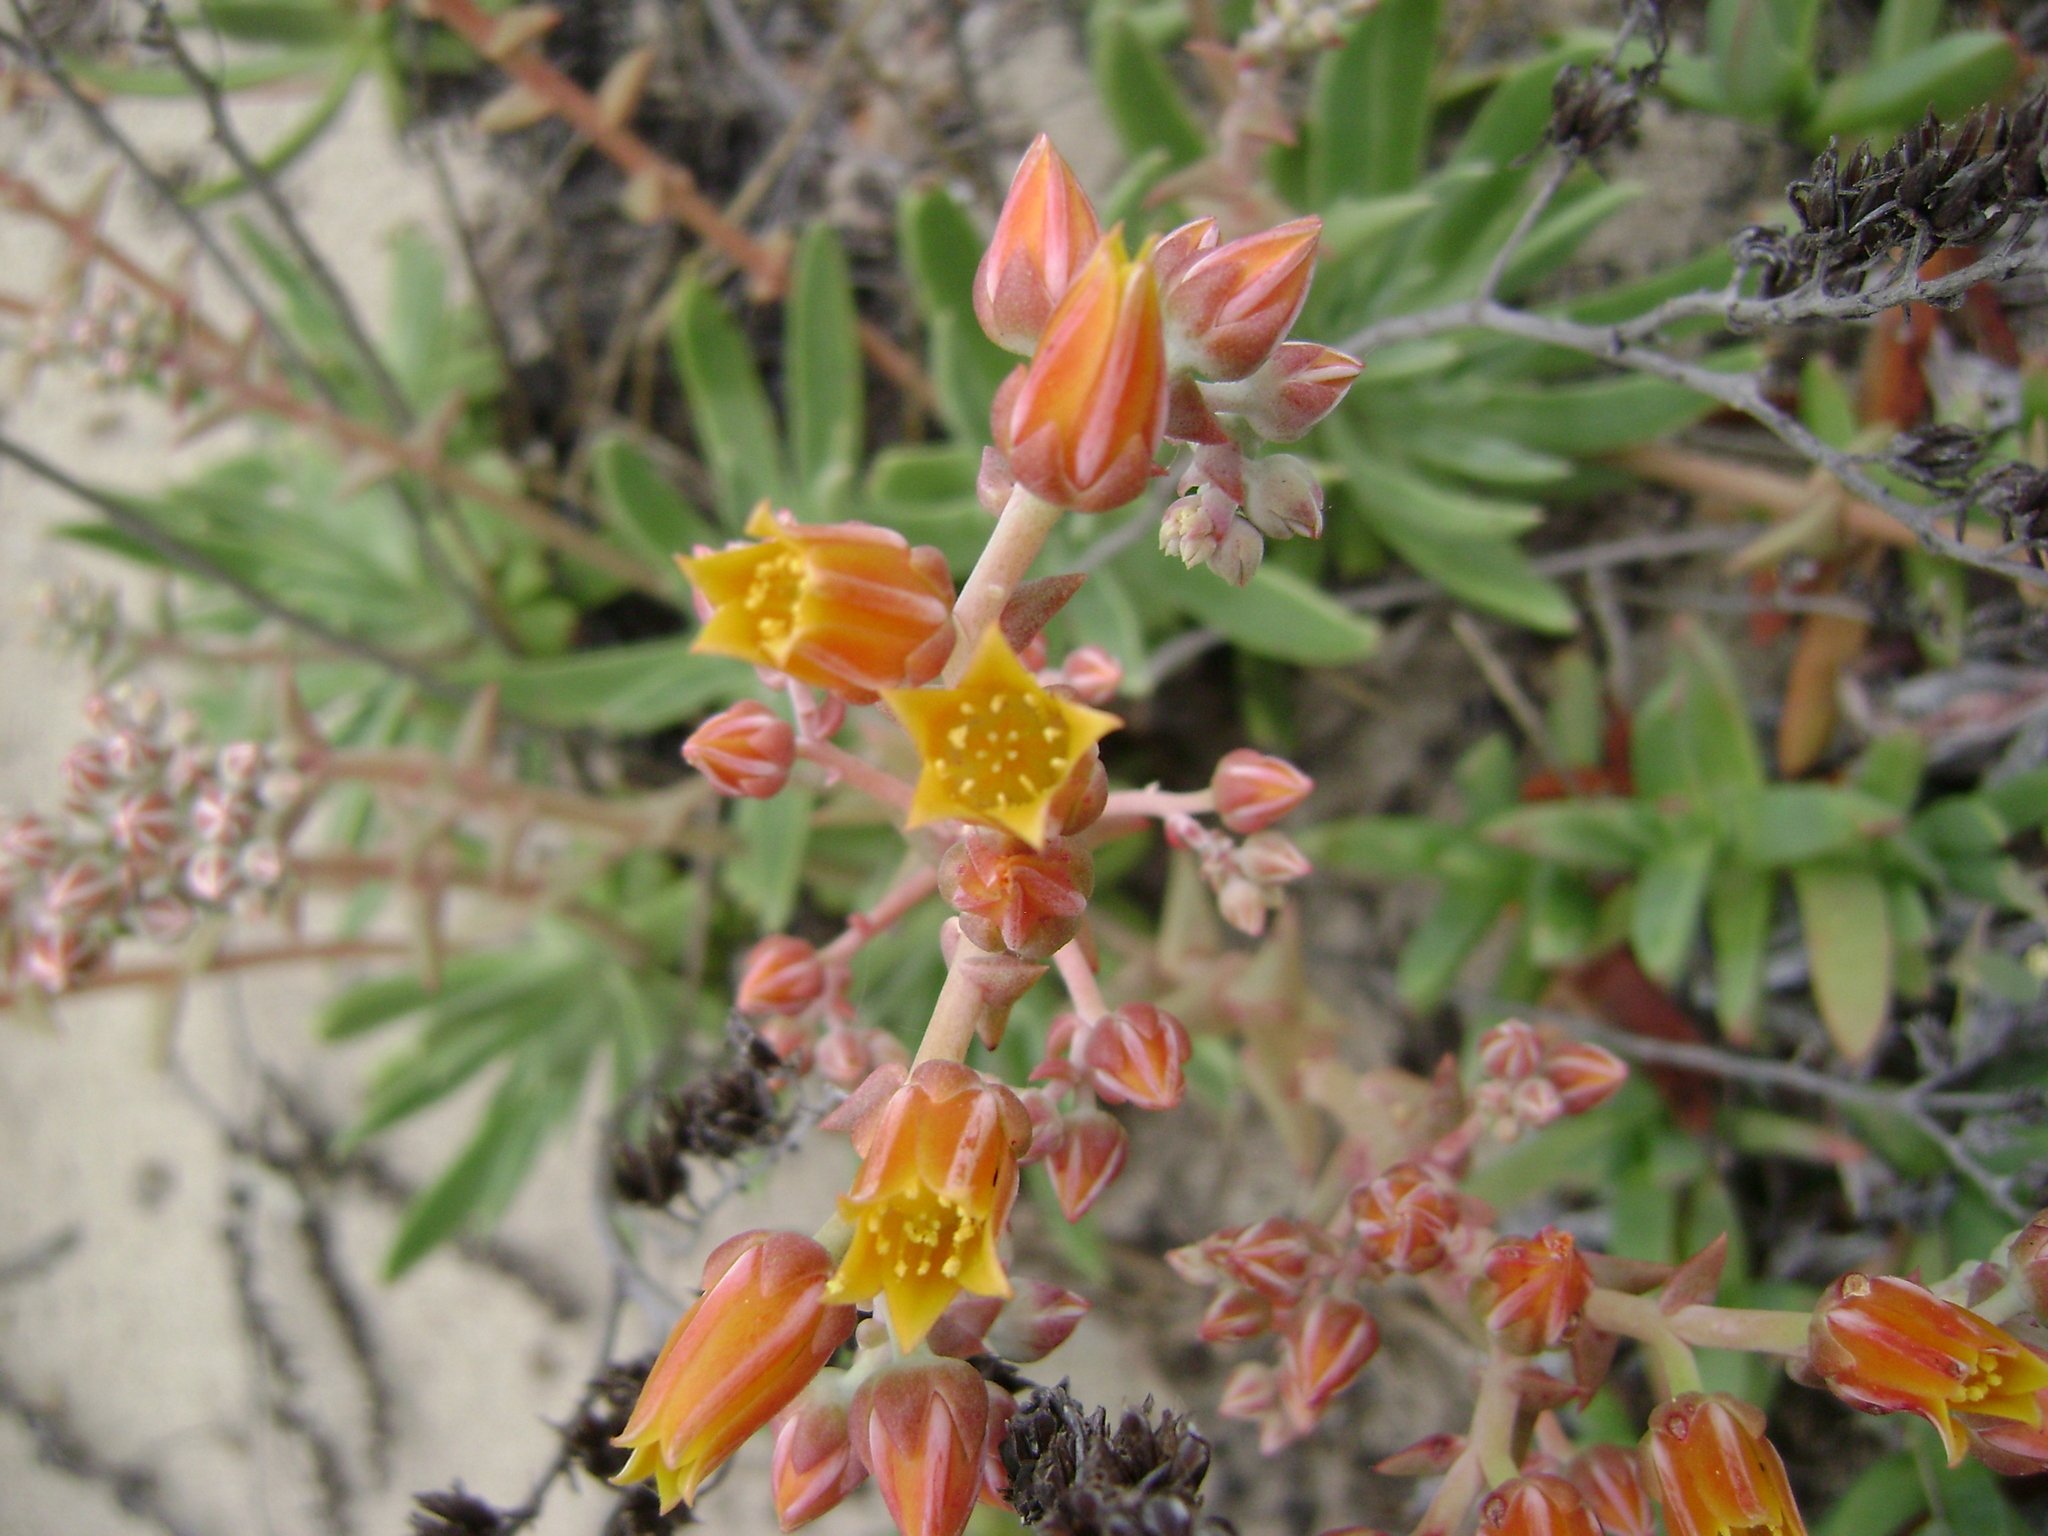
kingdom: Plantae
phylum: Tracheophyta
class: Magnoliopsida
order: Saxifragales
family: Crassulaceae
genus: Dudleya
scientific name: Dudleya caespitosa
